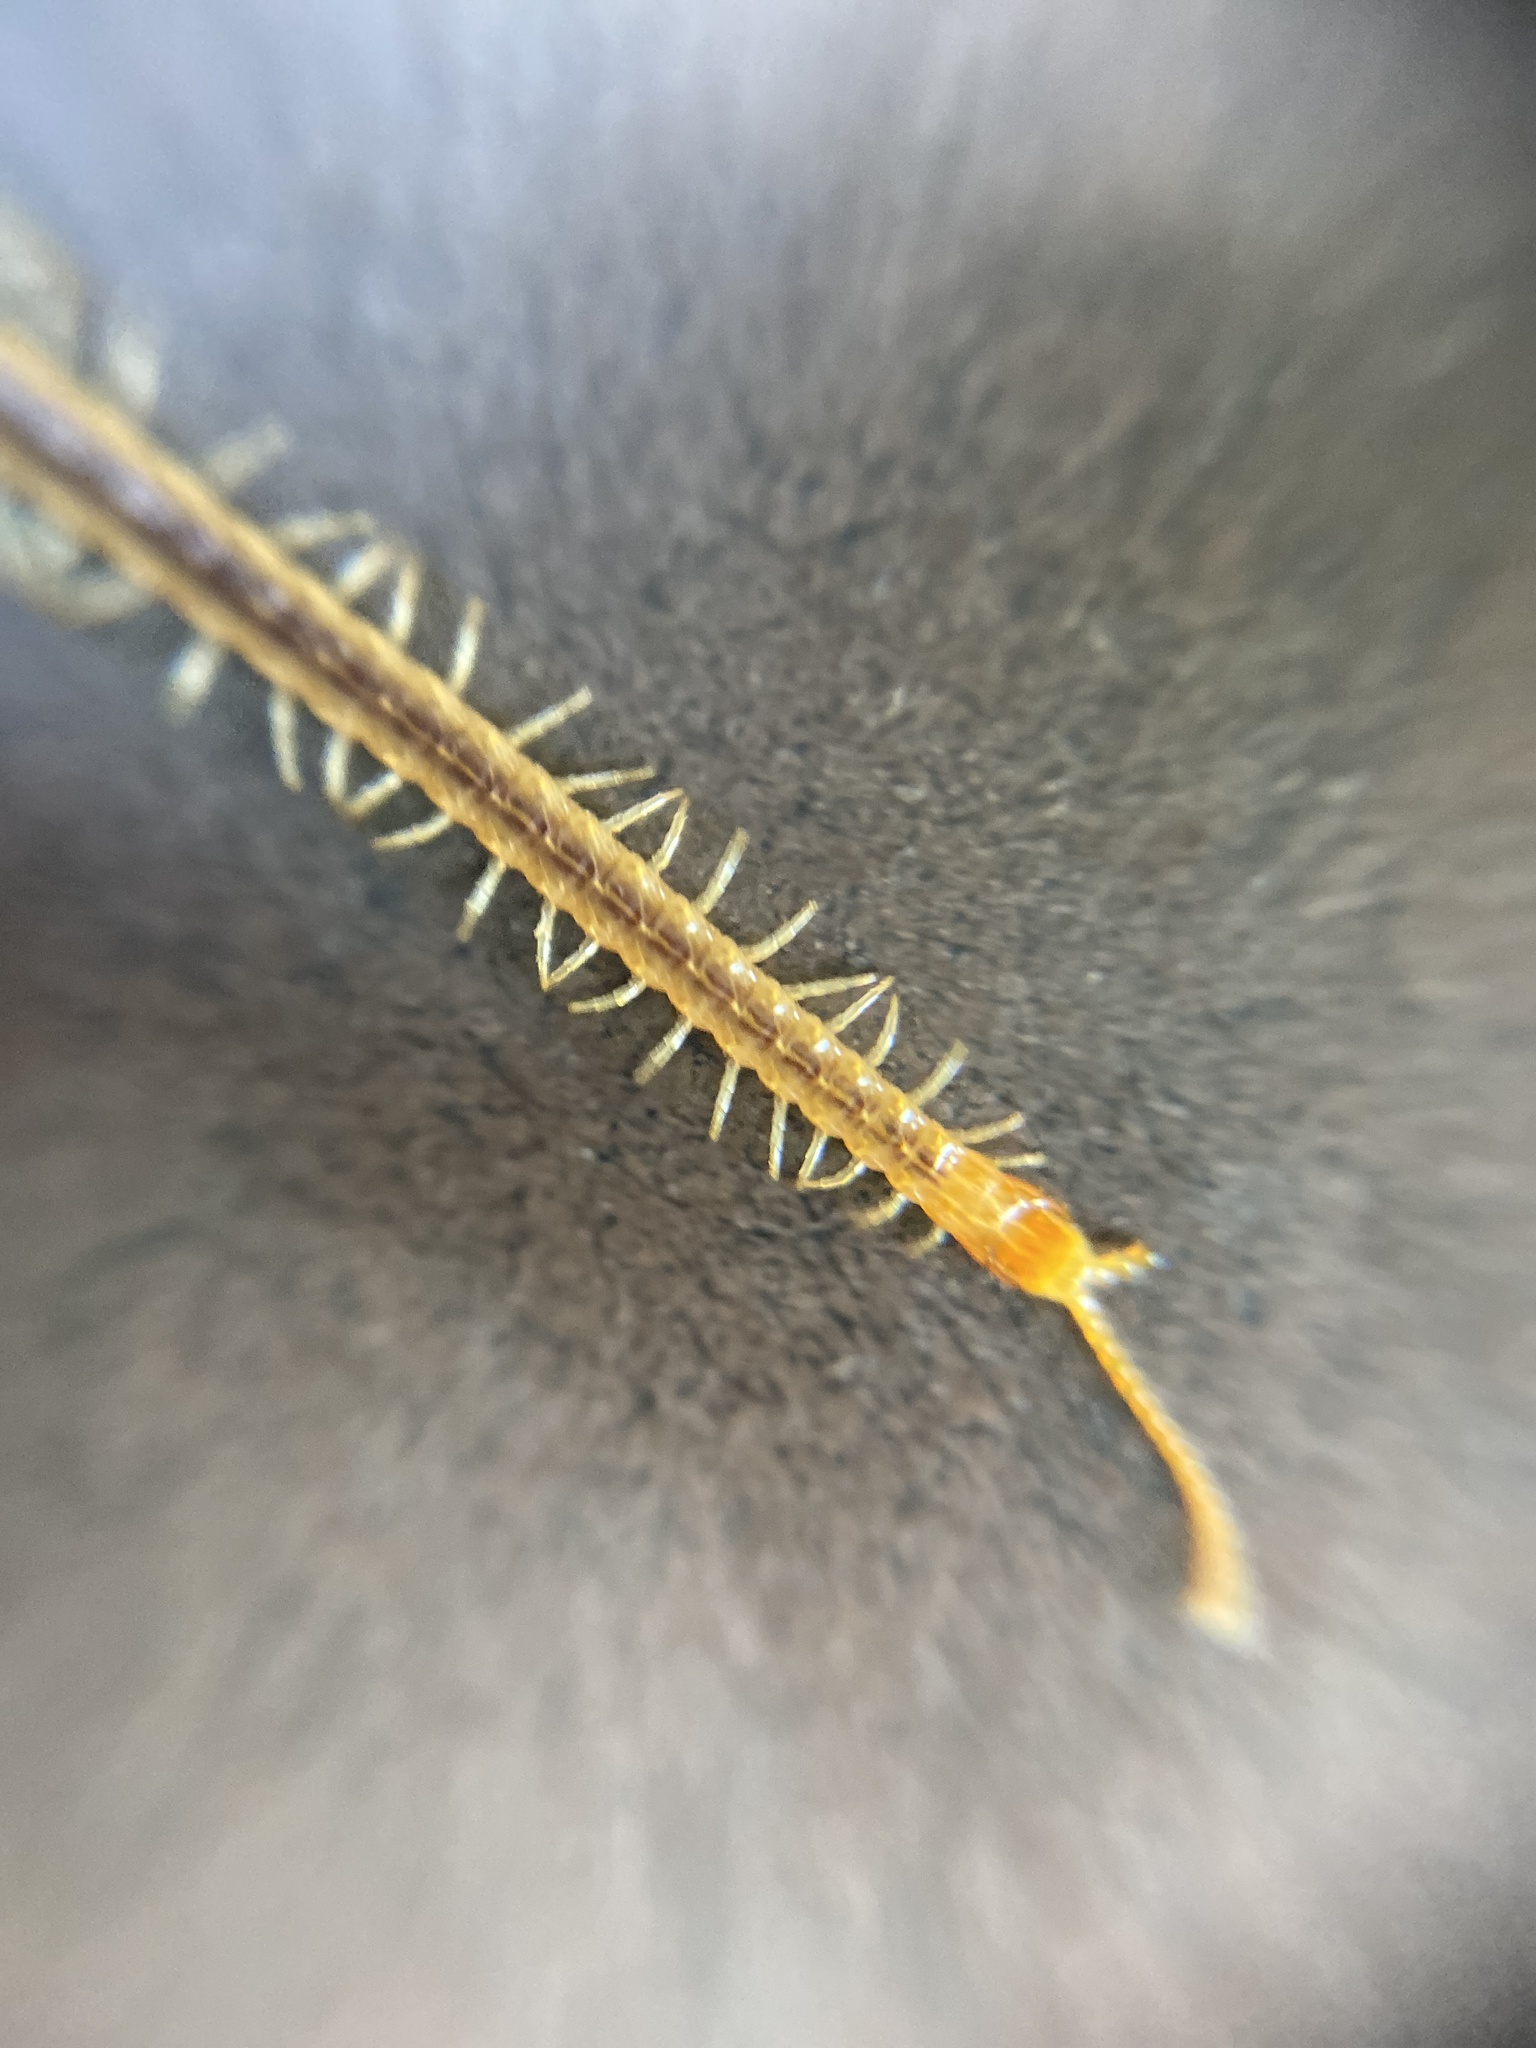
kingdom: Animalia
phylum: Arthropoda
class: Chilopoda
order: Geophilomorpha
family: Geophilidae
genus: Geophilus
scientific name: Geophilus flavus
